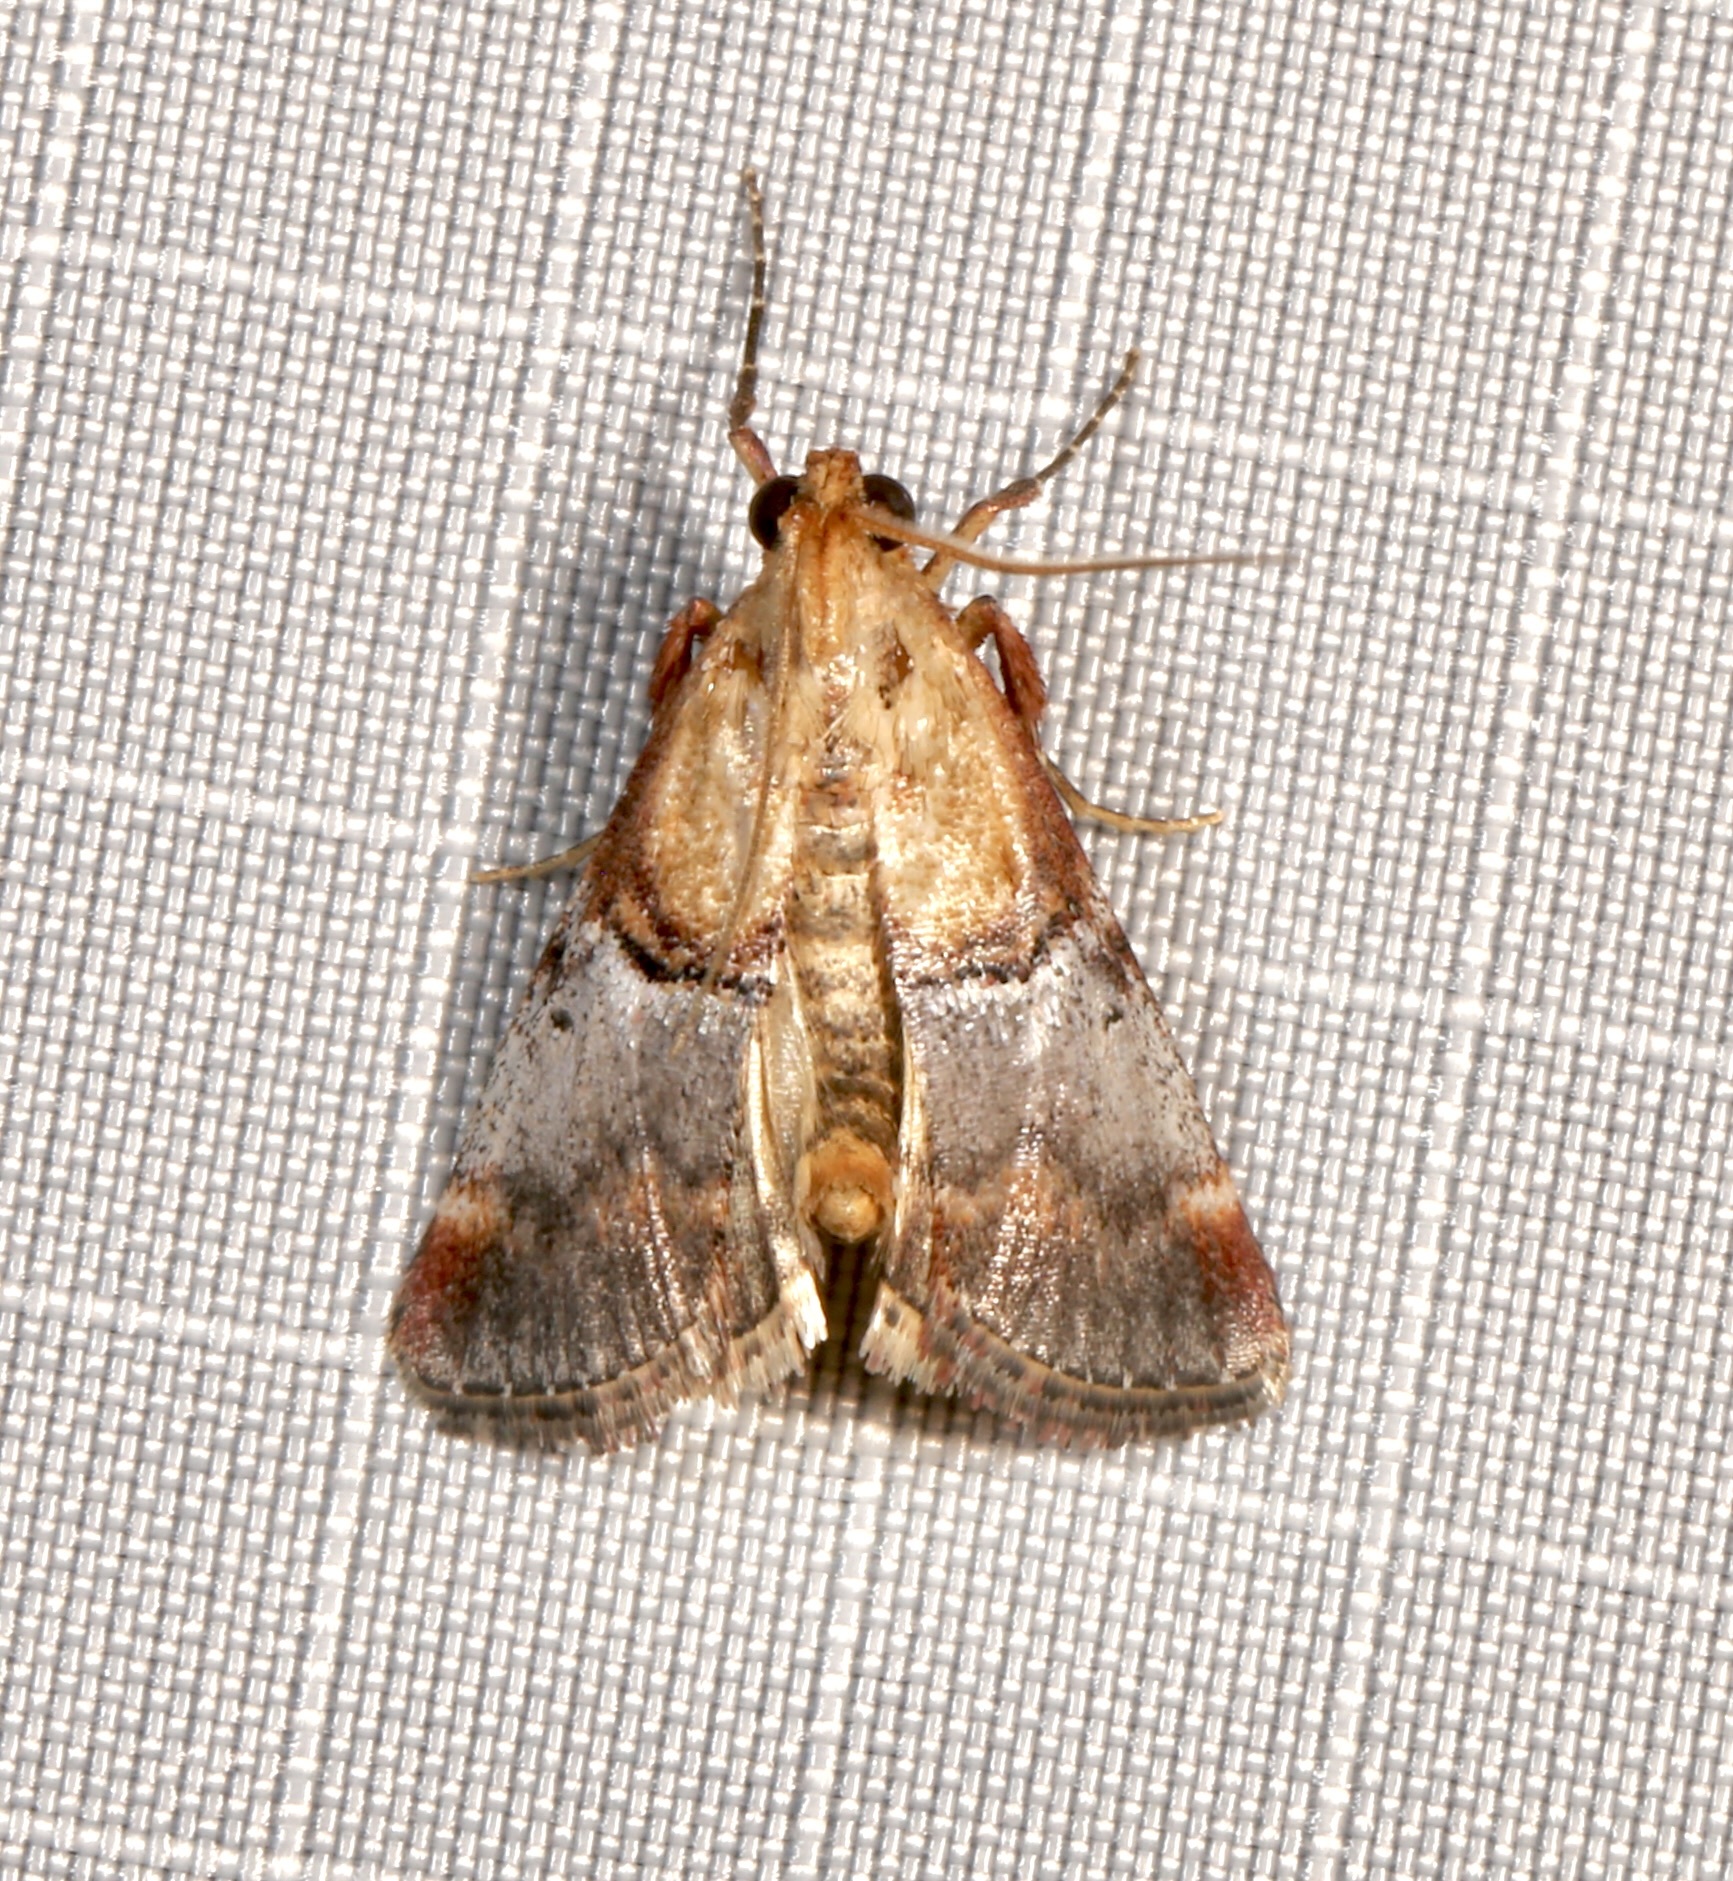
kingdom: Animalia
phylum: Arthropoda
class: Insecta
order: Lepidoptera
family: Pyralidae
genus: Cacozelia
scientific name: Cacozelia basiochrealis
